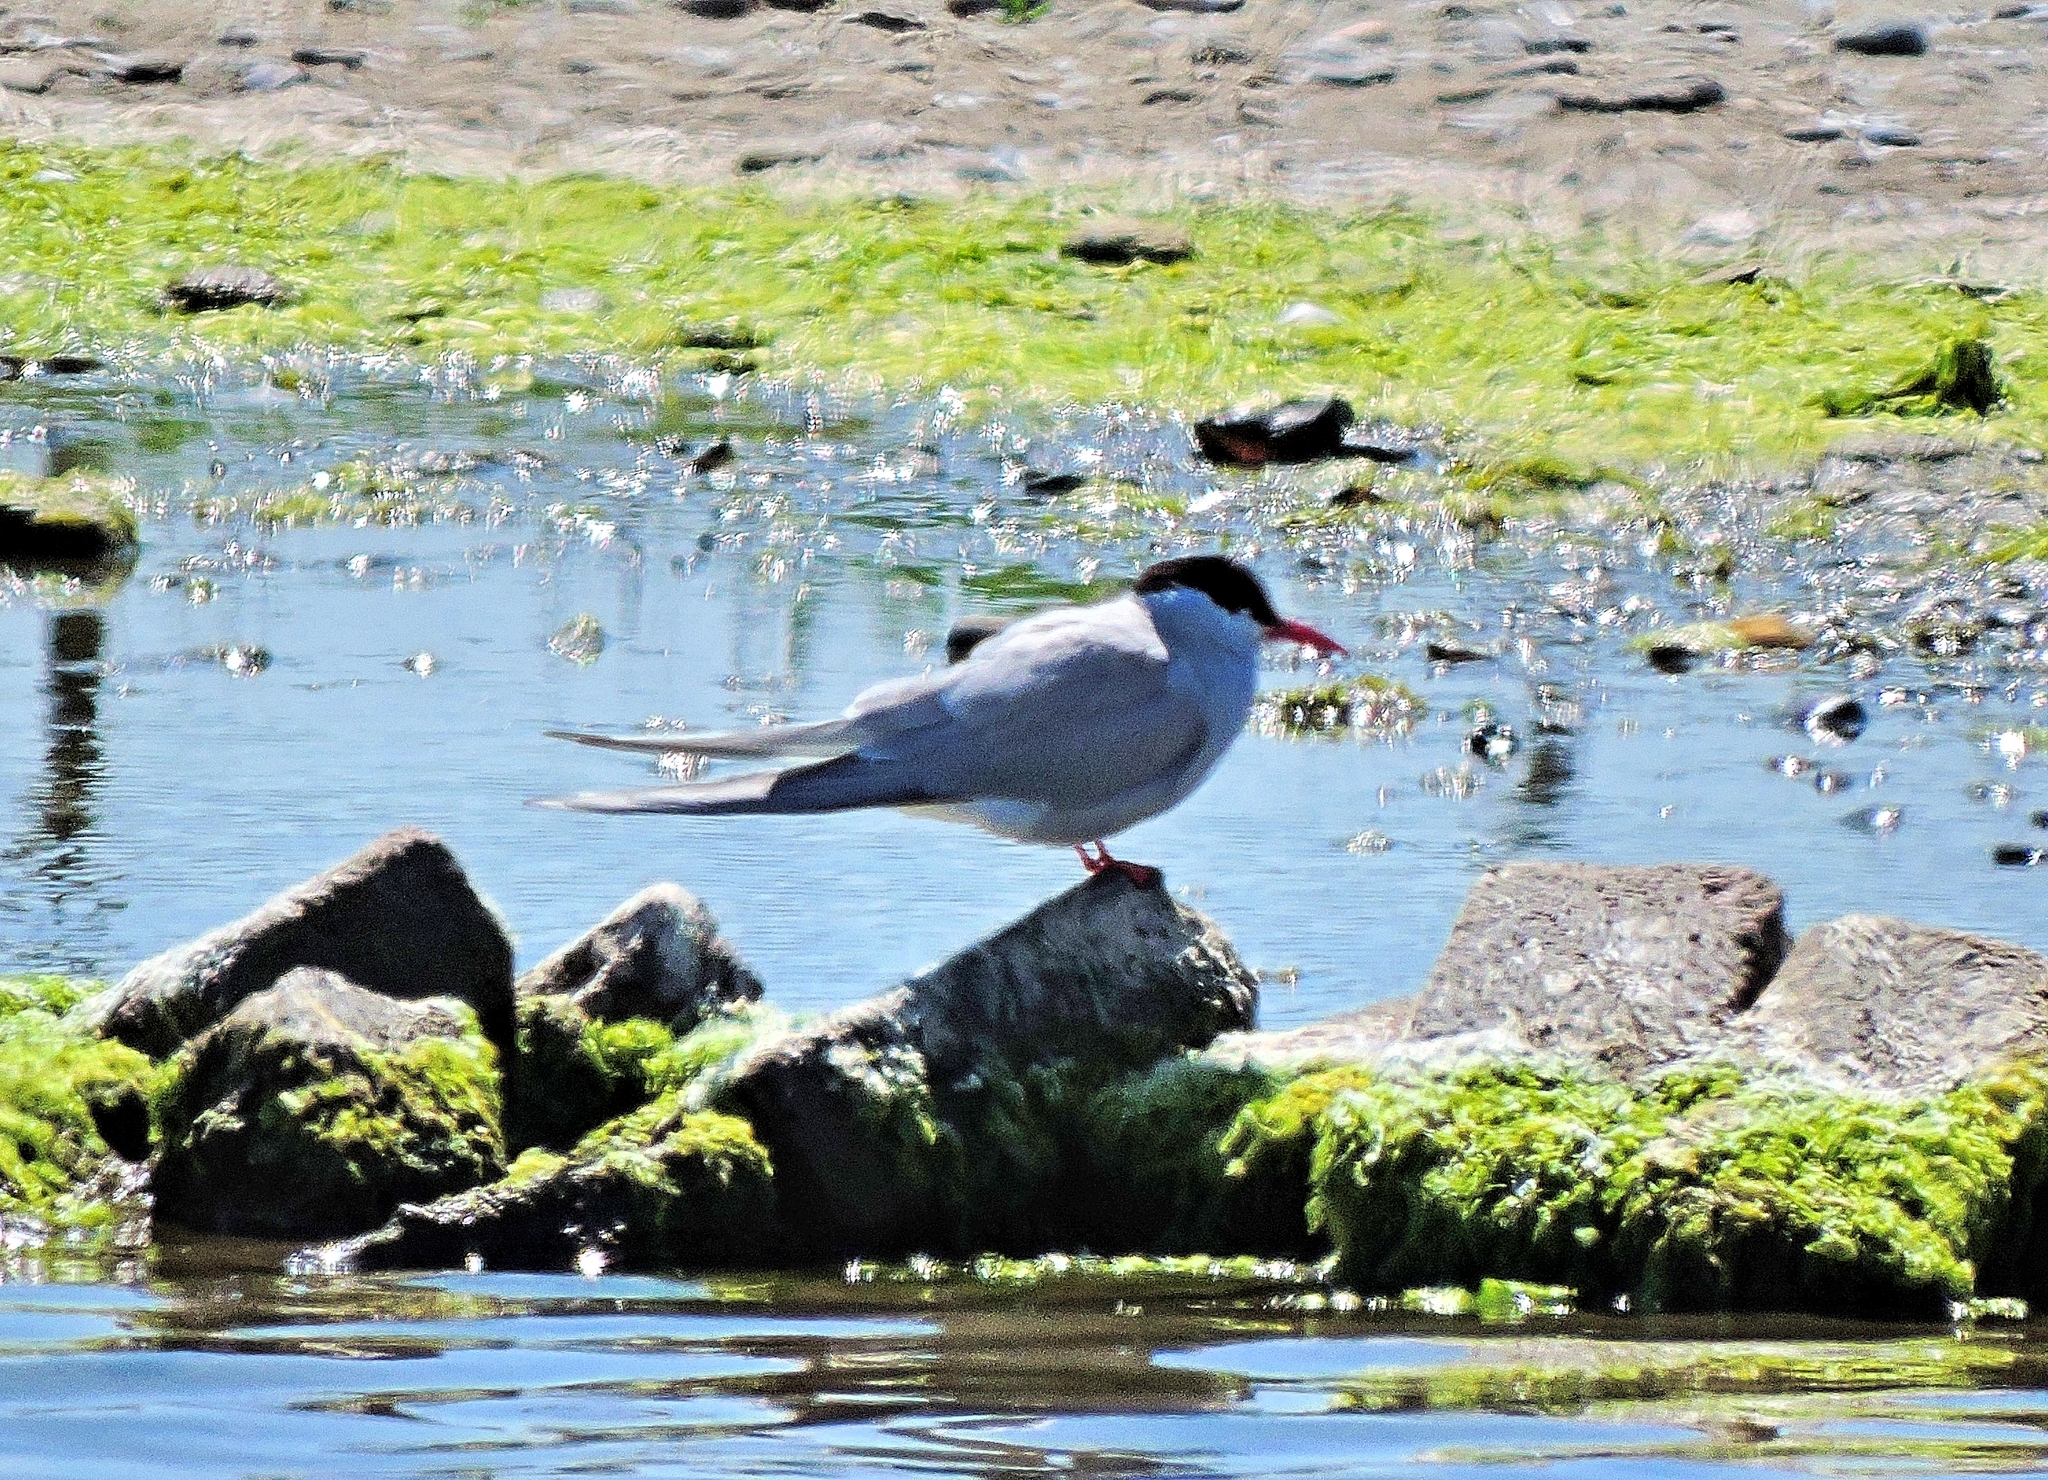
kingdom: Animalia
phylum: Chordata
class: Aves
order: Charadriiformes
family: Laridae
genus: Sterna
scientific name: Sterna paradisaea
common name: Arctic tern
